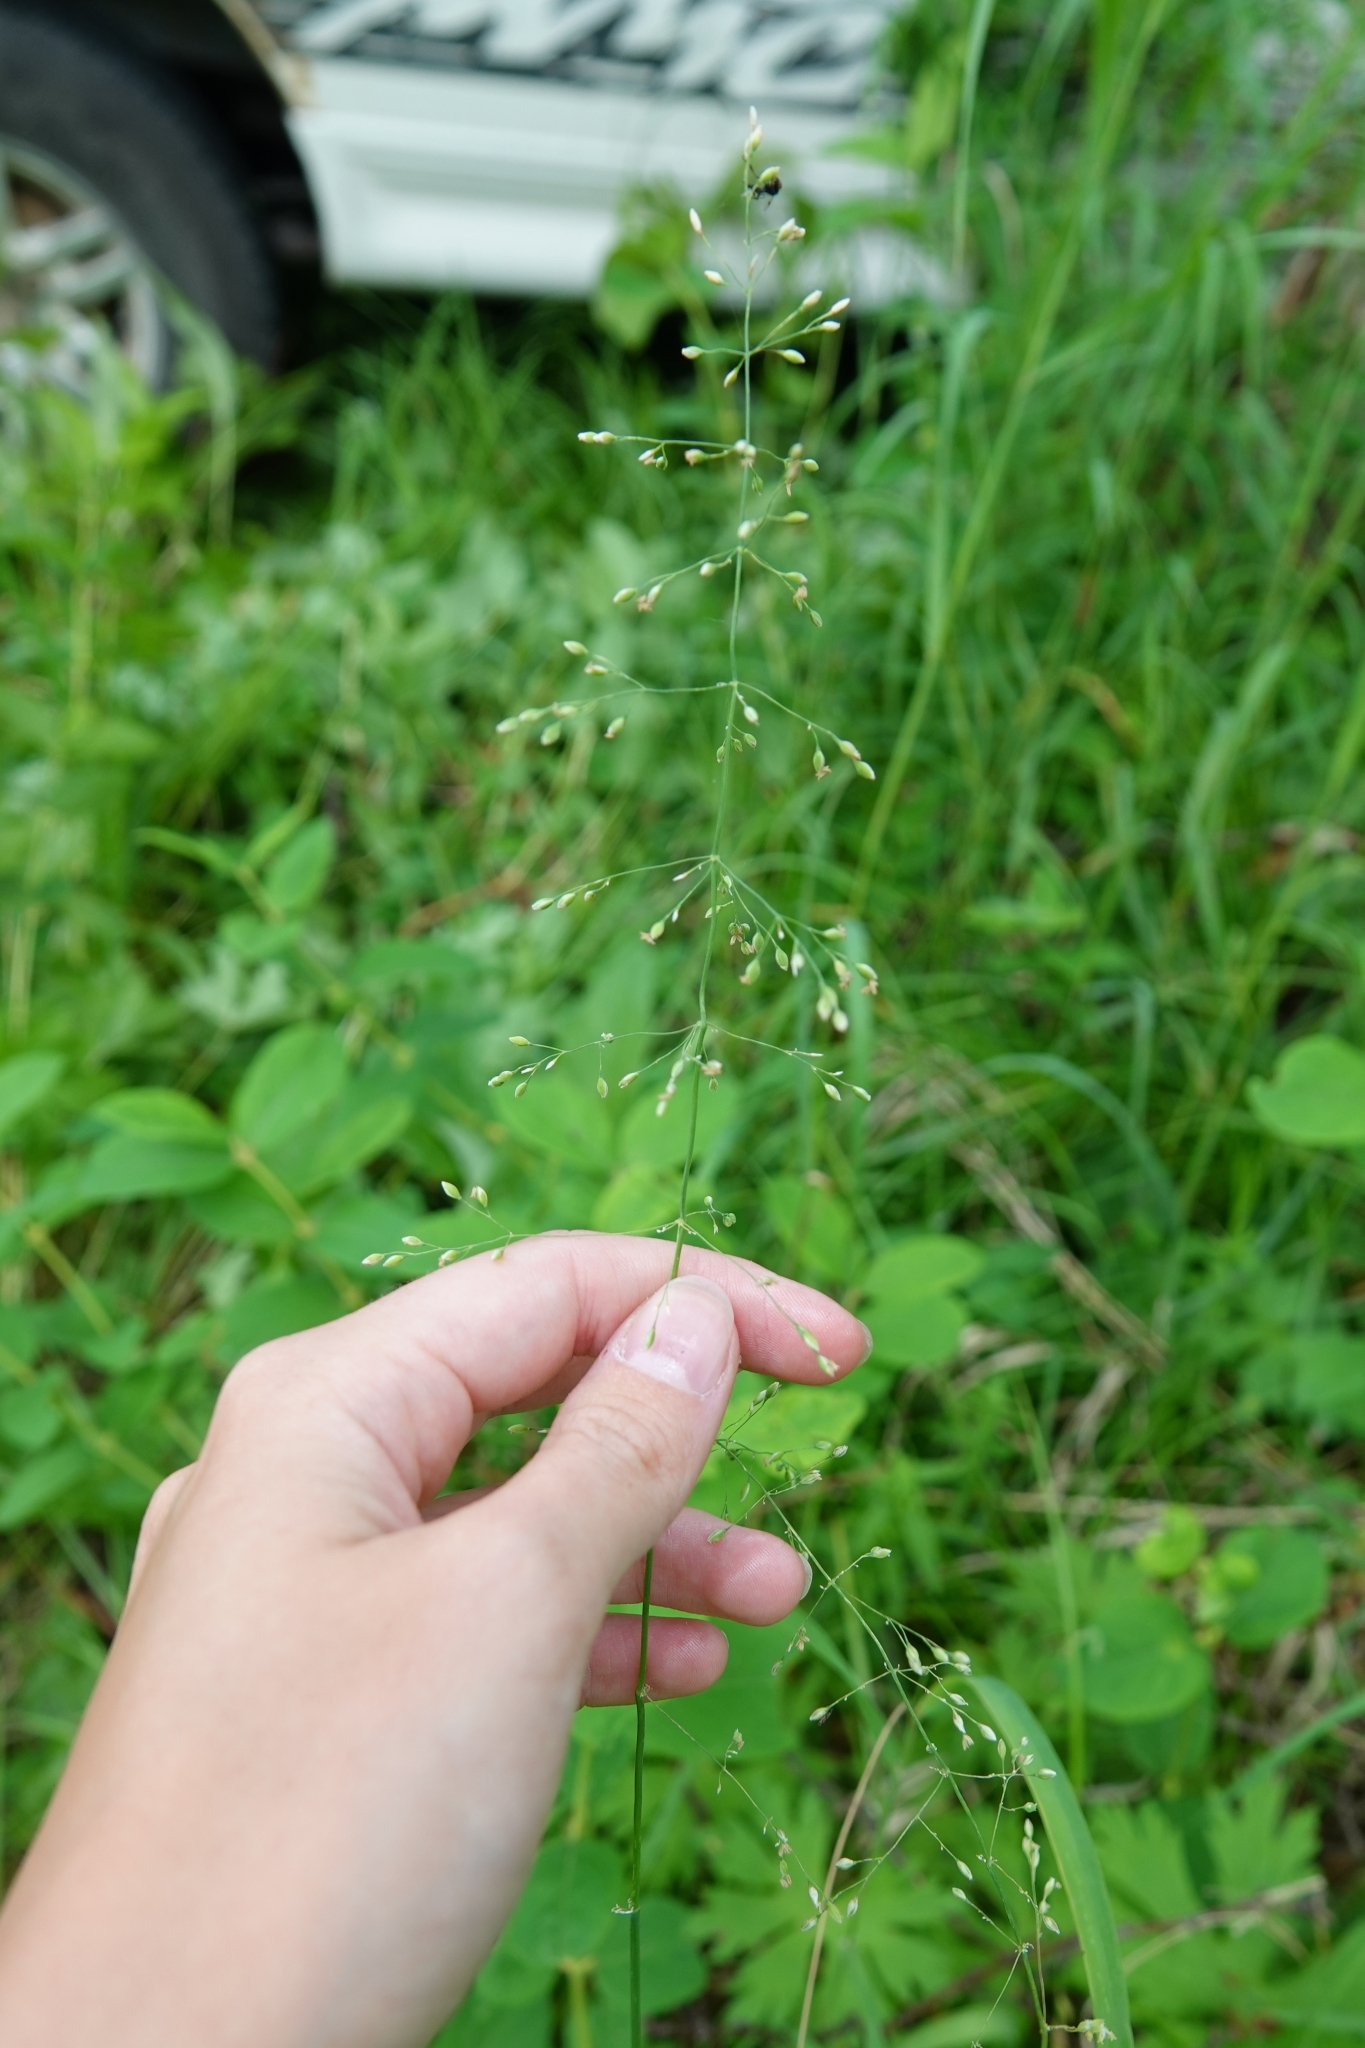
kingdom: Plantae
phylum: Tracheophyta
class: Liliopsida
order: Poales
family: Poaceae
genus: Milium
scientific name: Milium effusum
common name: Wood millet
